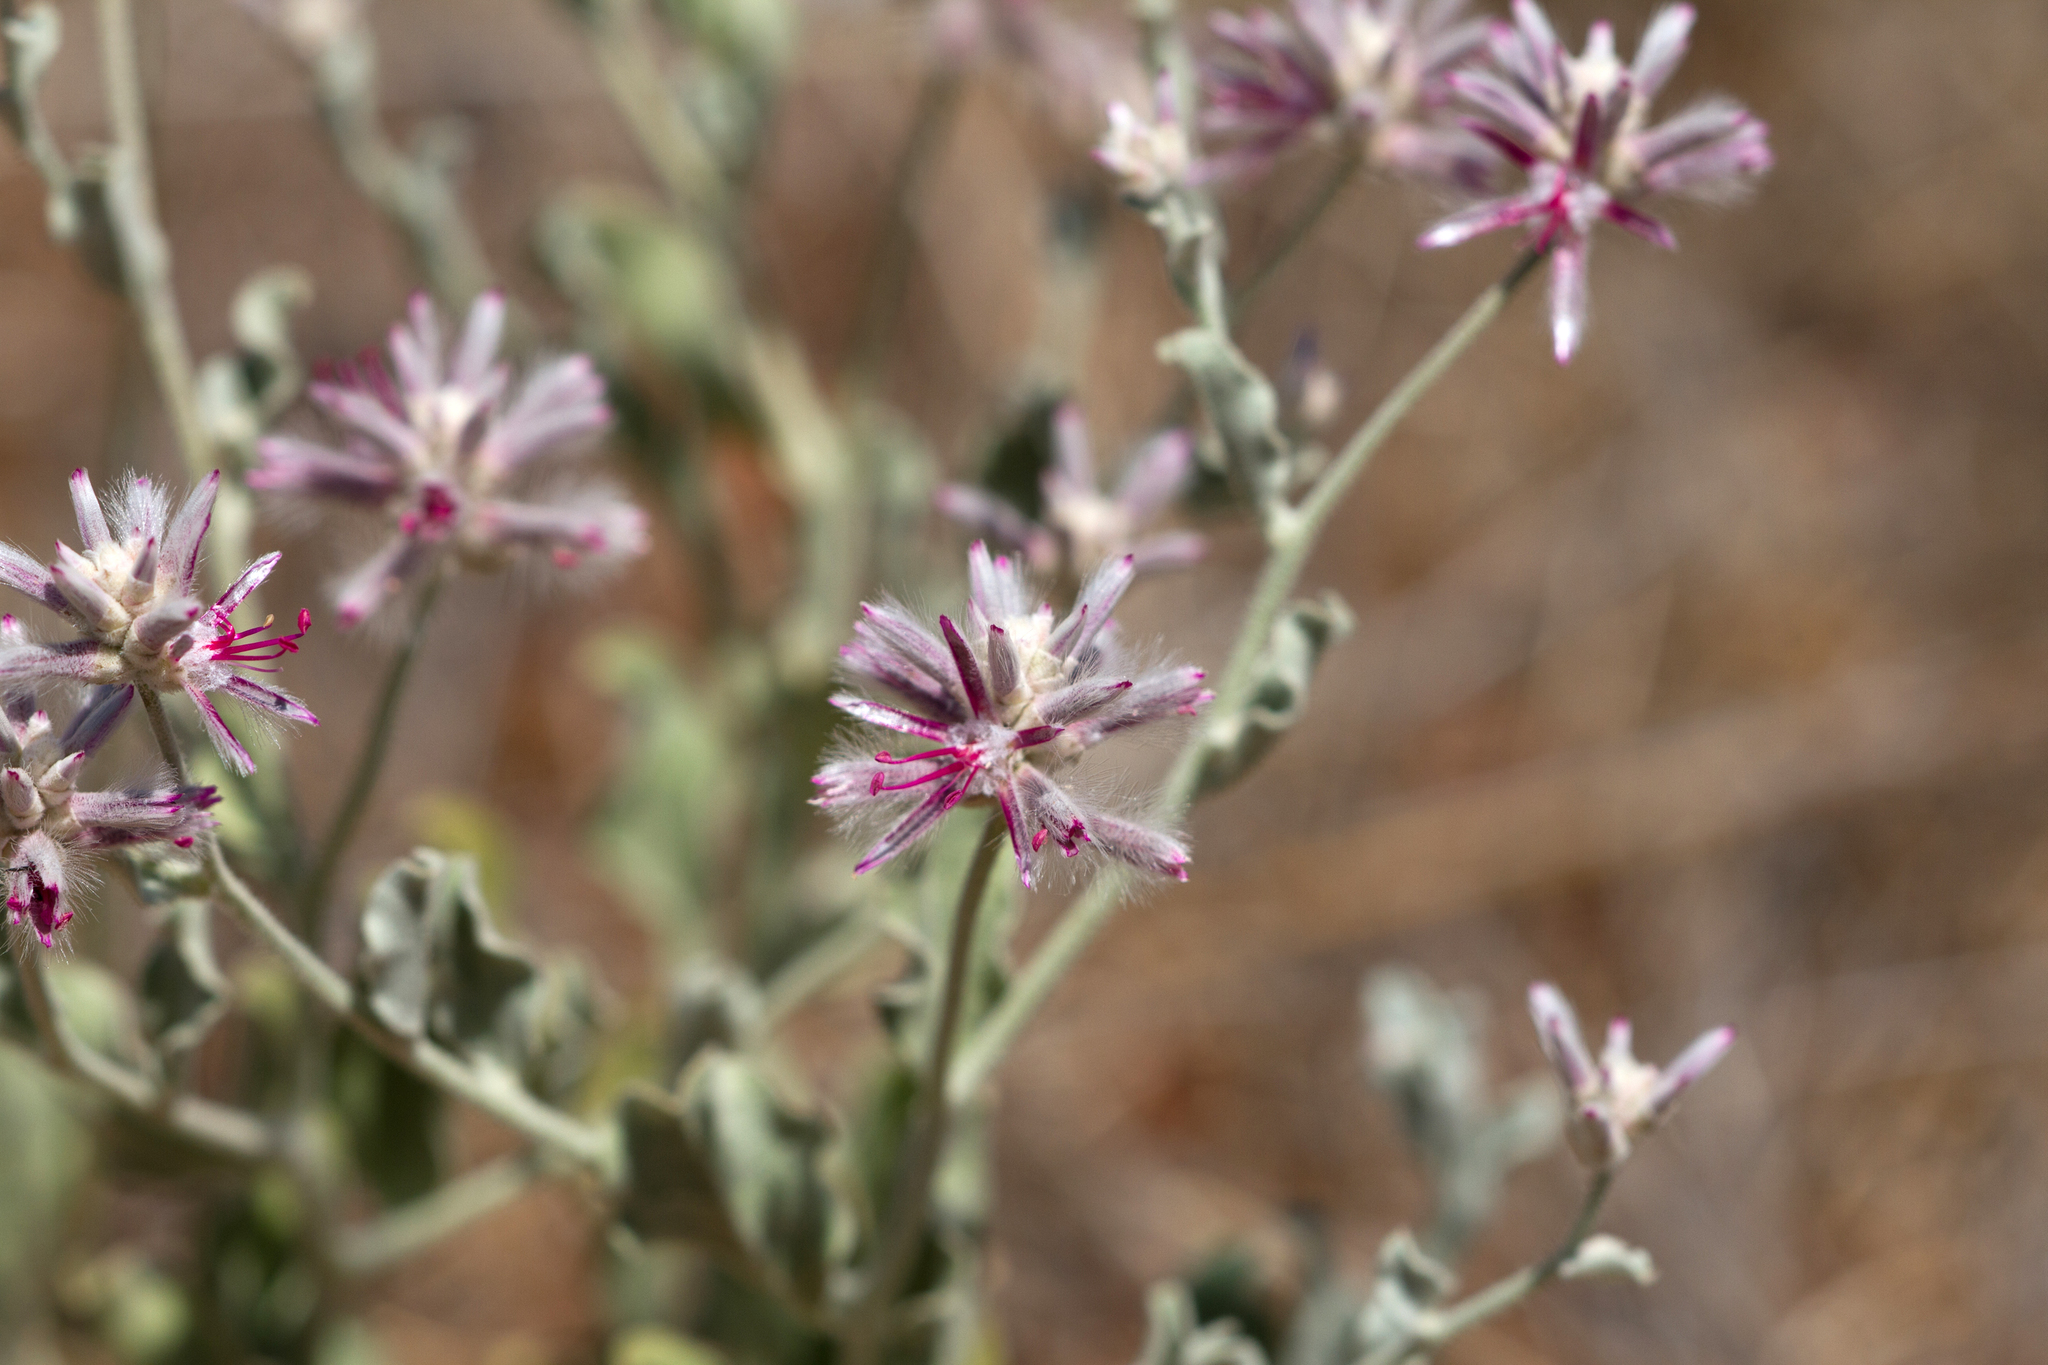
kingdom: Plantae
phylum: Tracheophyta
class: Magnoliopsida
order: Caryophyllales
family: Amaranthaceae
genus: Ptilotus
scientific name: Ptilotus sessilifolius
